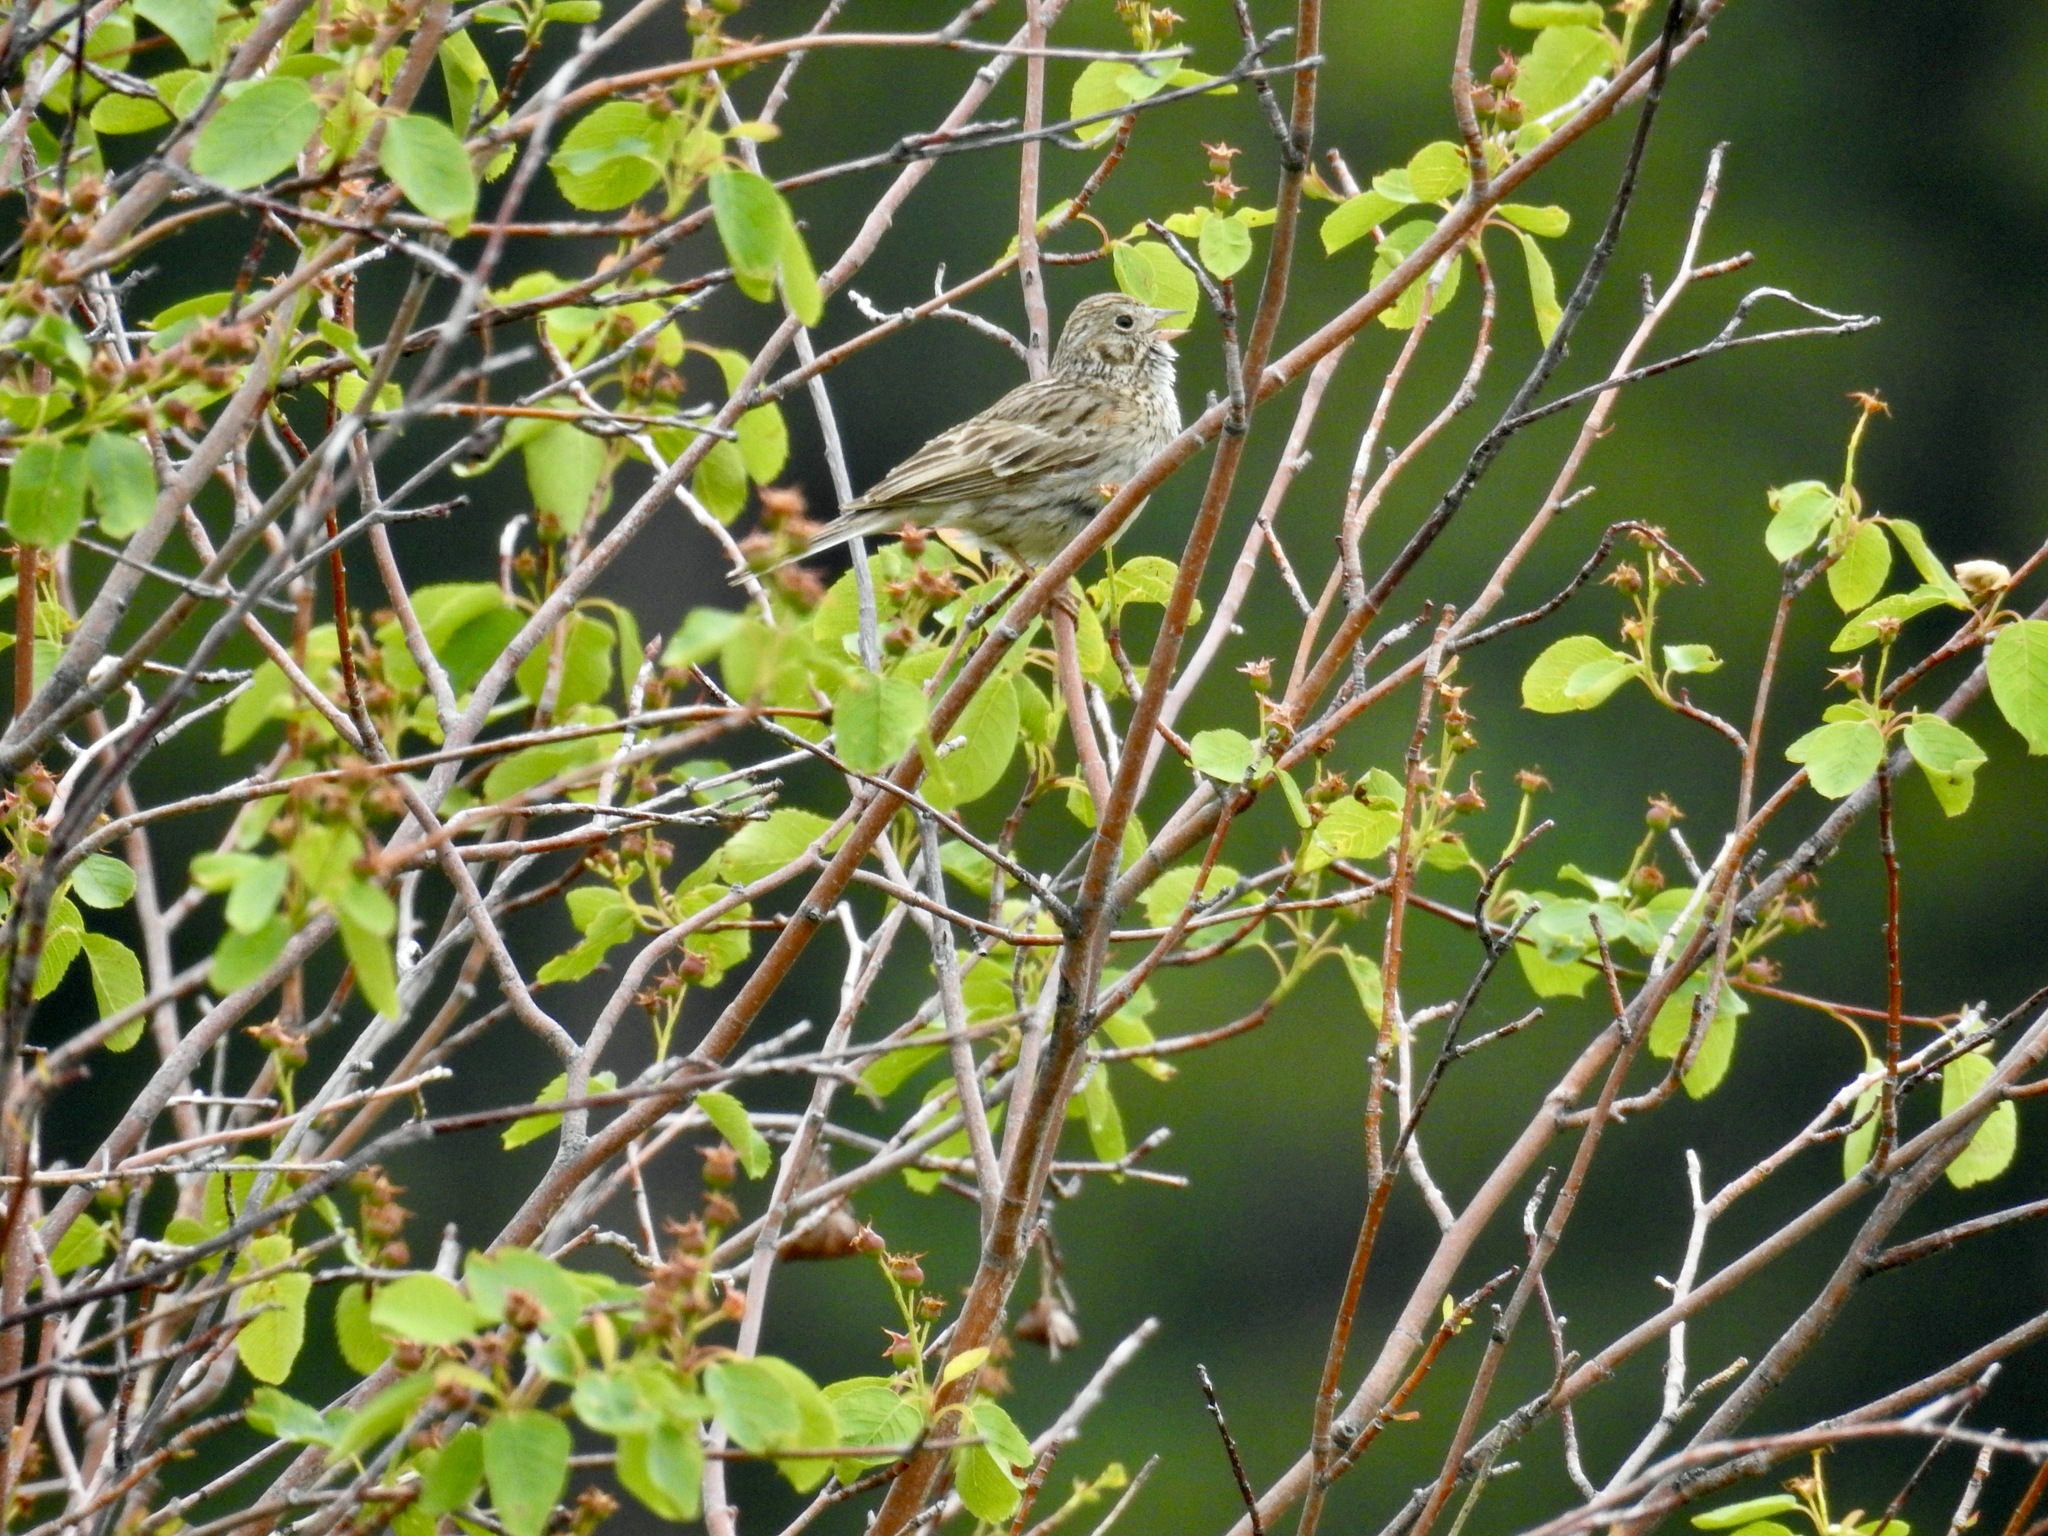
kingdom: Animalia
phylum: Chordata
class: Aves
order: Passeriformes
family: Passerellidae
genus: Pooecetes
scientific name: Pooecetes gramineus
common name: Vesper sparrow
